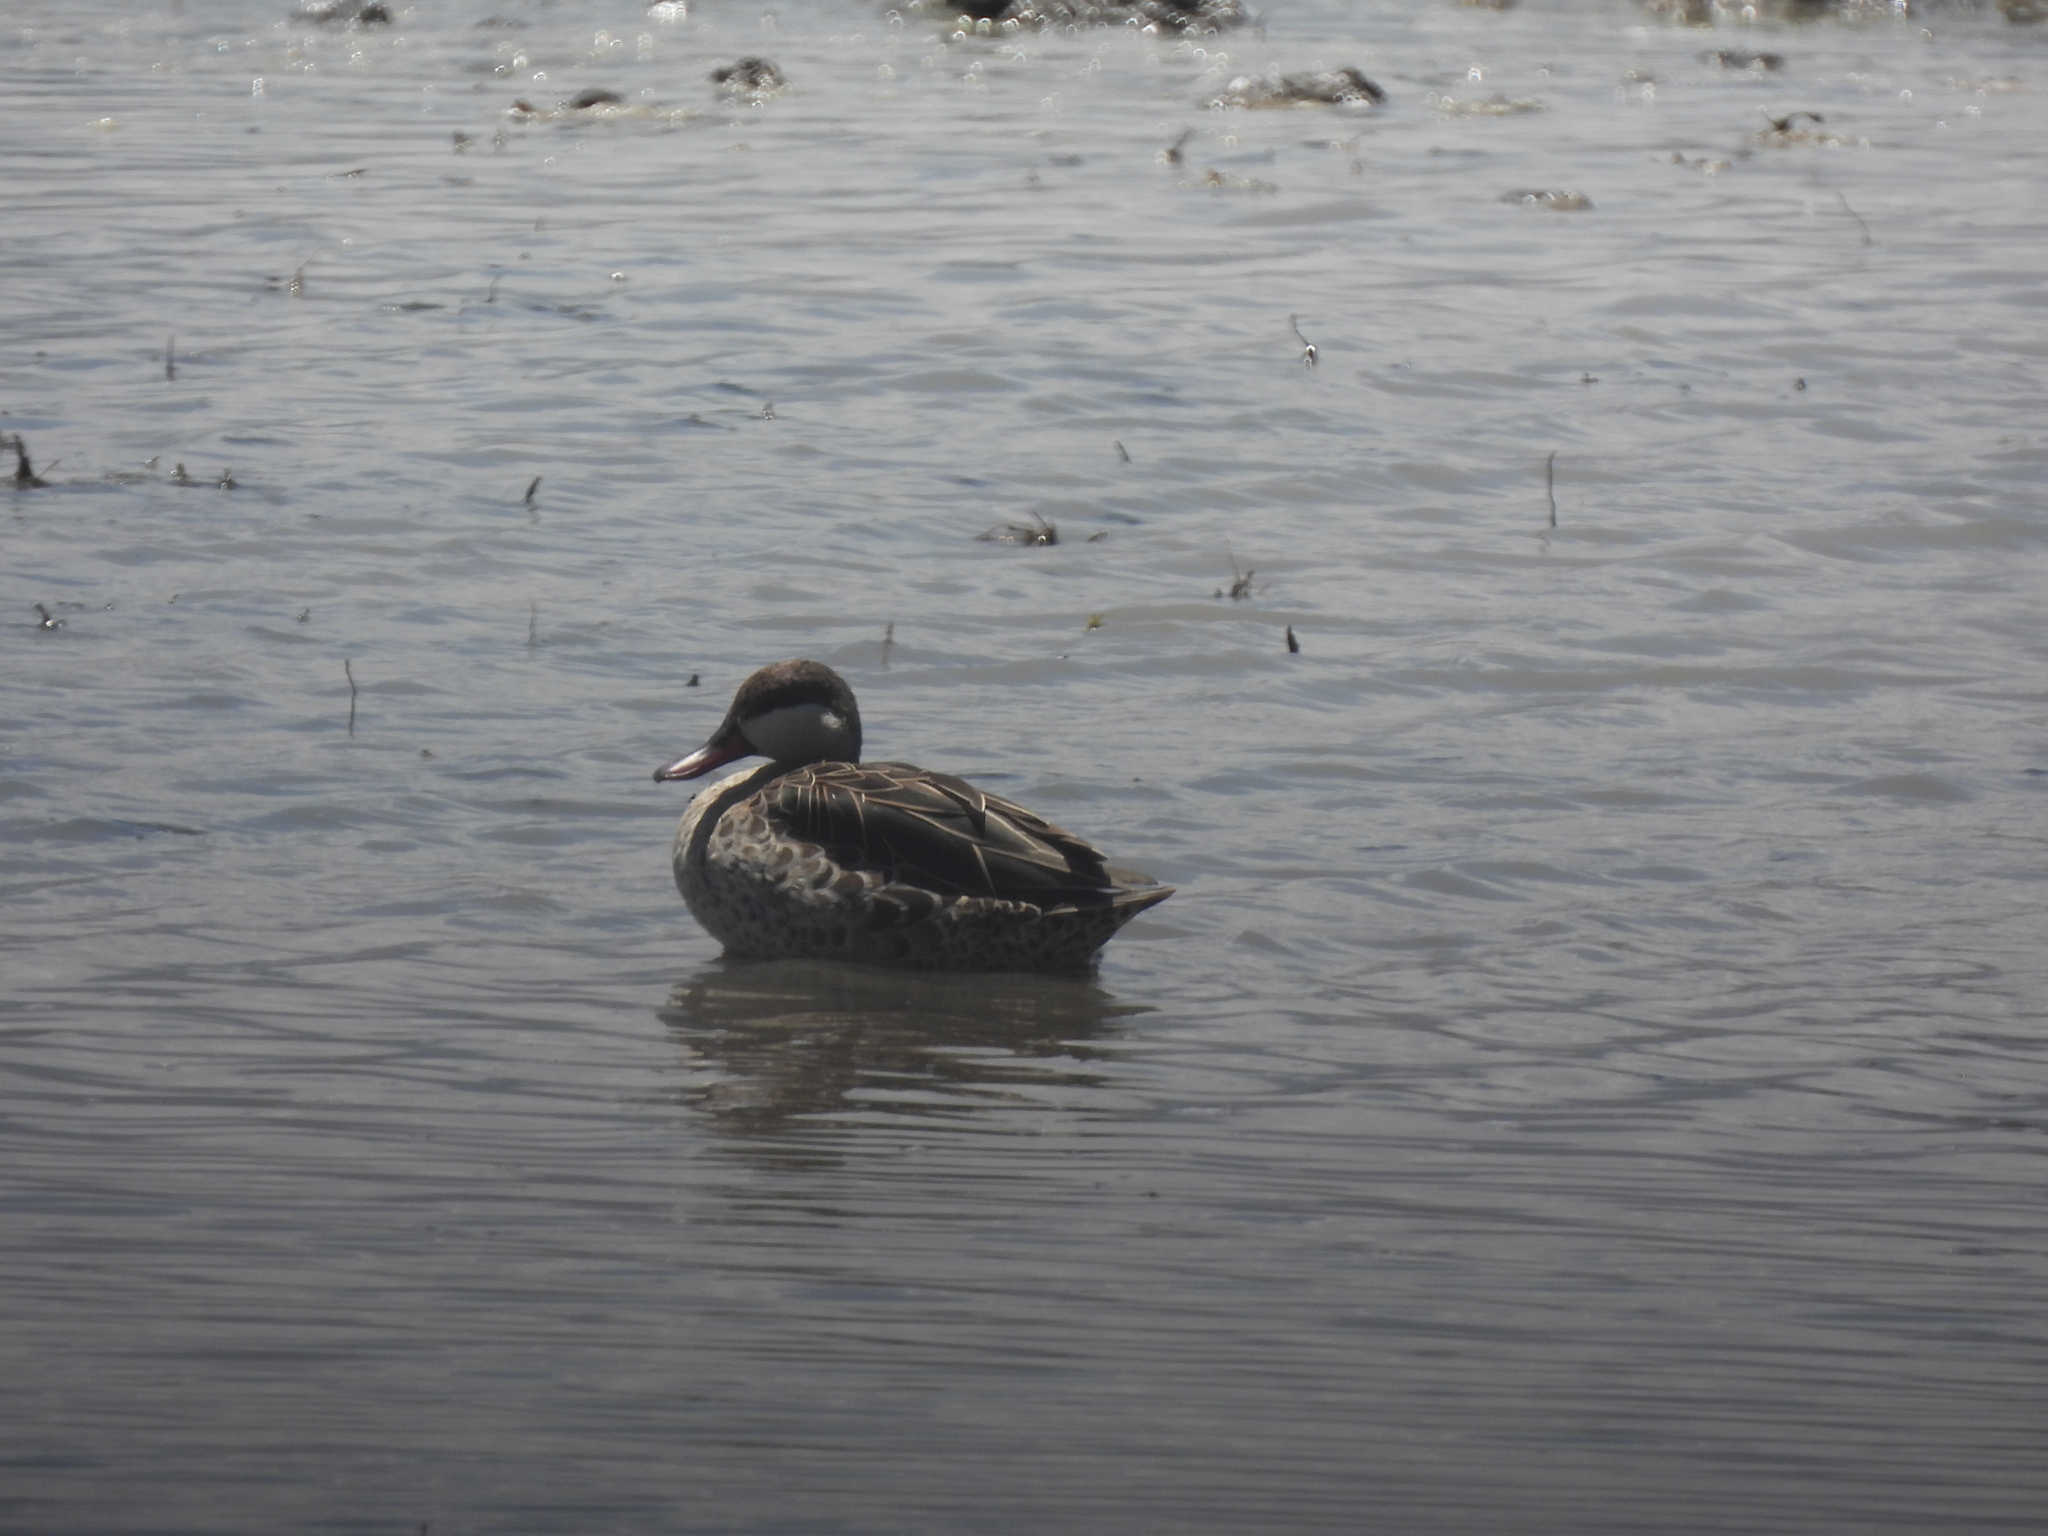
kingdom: Animalia
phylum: Chordata
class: Aves
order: Anseriformes
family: Anatidae
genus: Anas
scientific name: Anas erythrorhyncha
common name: Red-billed teal
